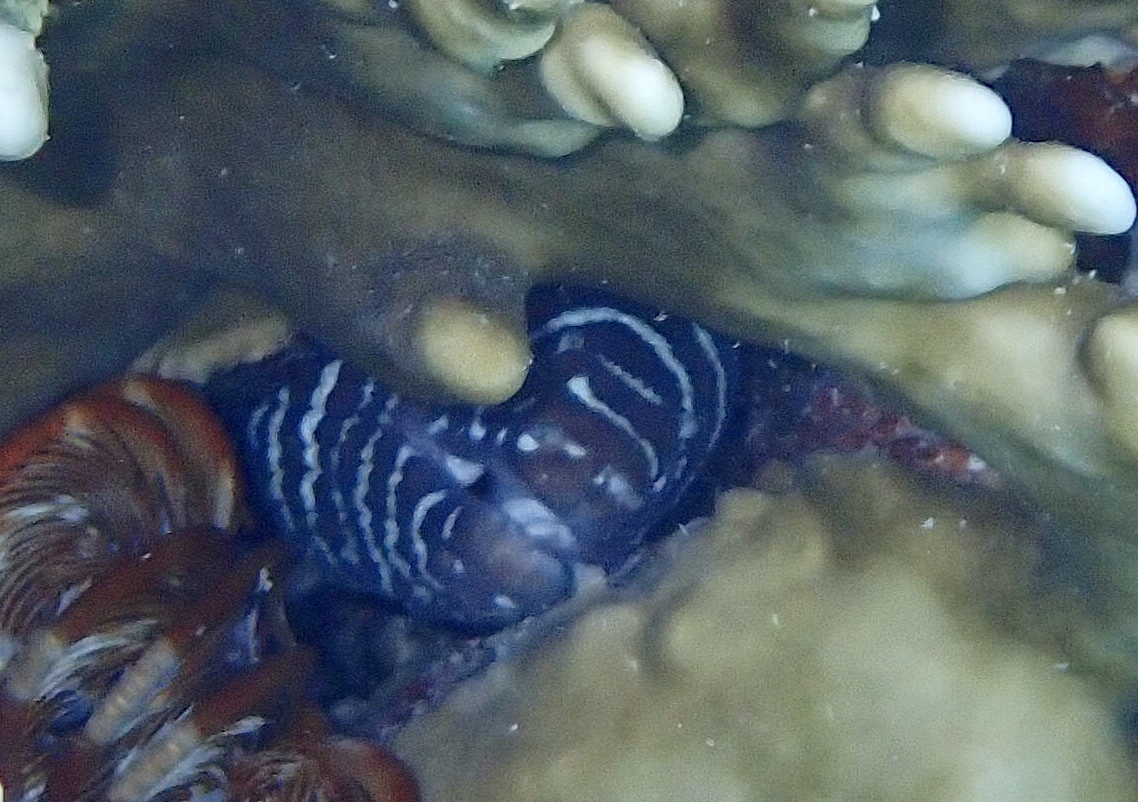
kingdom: Animalia
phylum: Chordata
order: Anguilliformes
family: Muraenidae
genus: Gymnomuraena
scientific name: Gymnomuraena zebra
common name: Zebra moray
